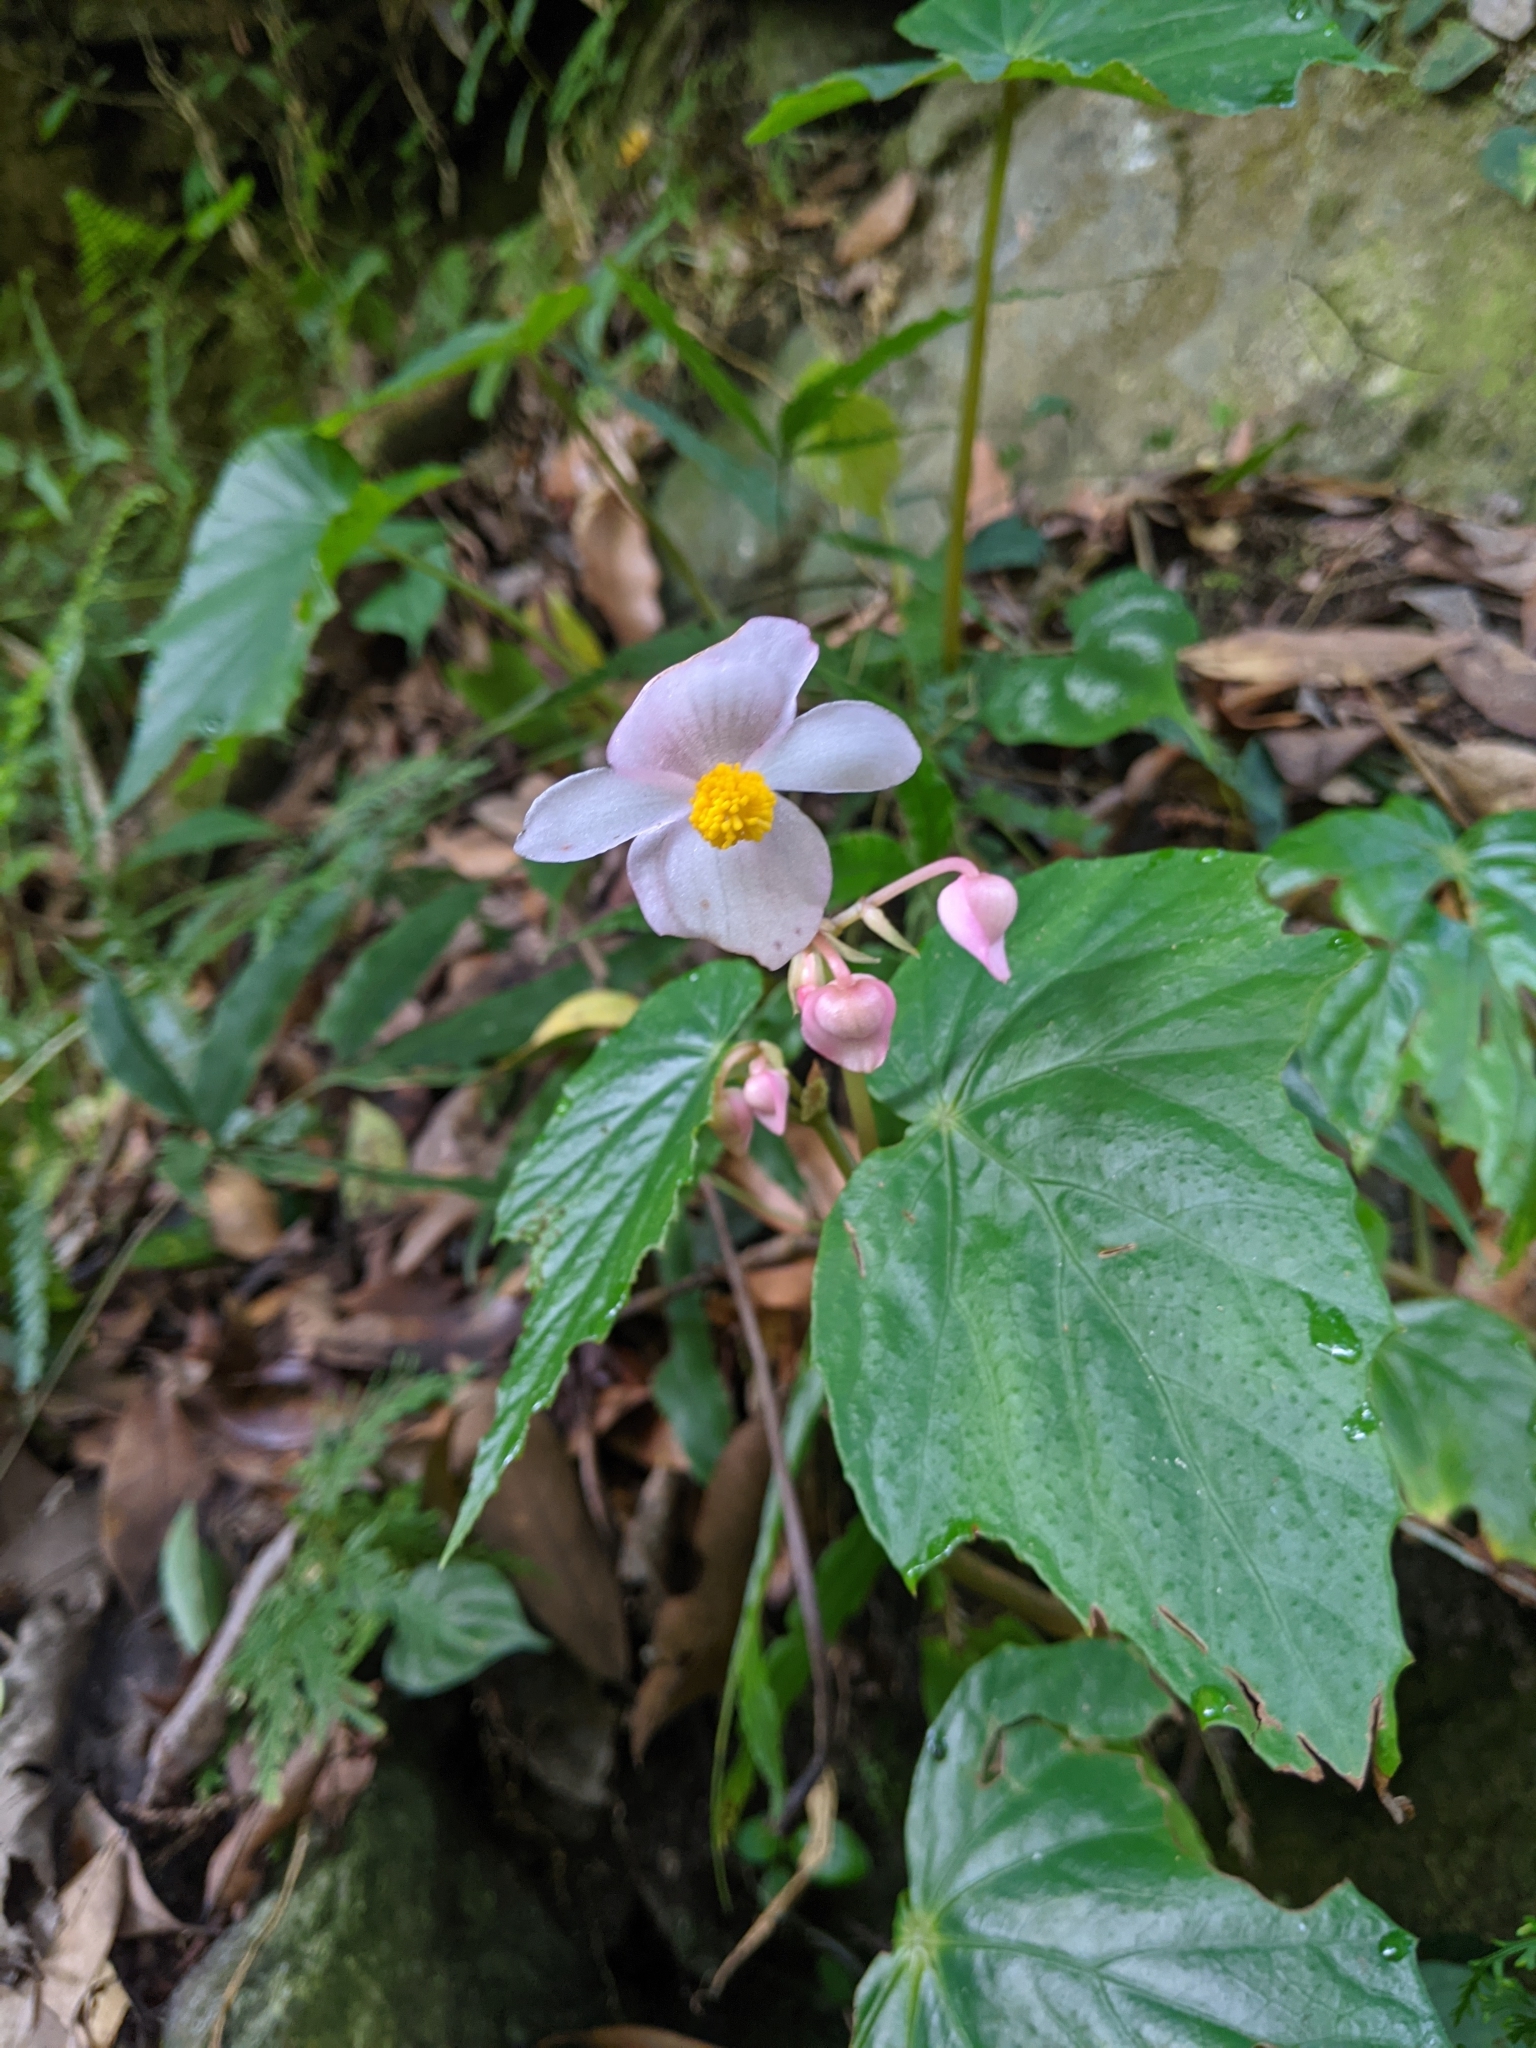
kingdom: Plantae
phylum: Tracheophyta
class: Magnoliopsida
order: Cucurbitales
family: Begoniaceae
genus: Begonia
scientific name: Begonia formosana
